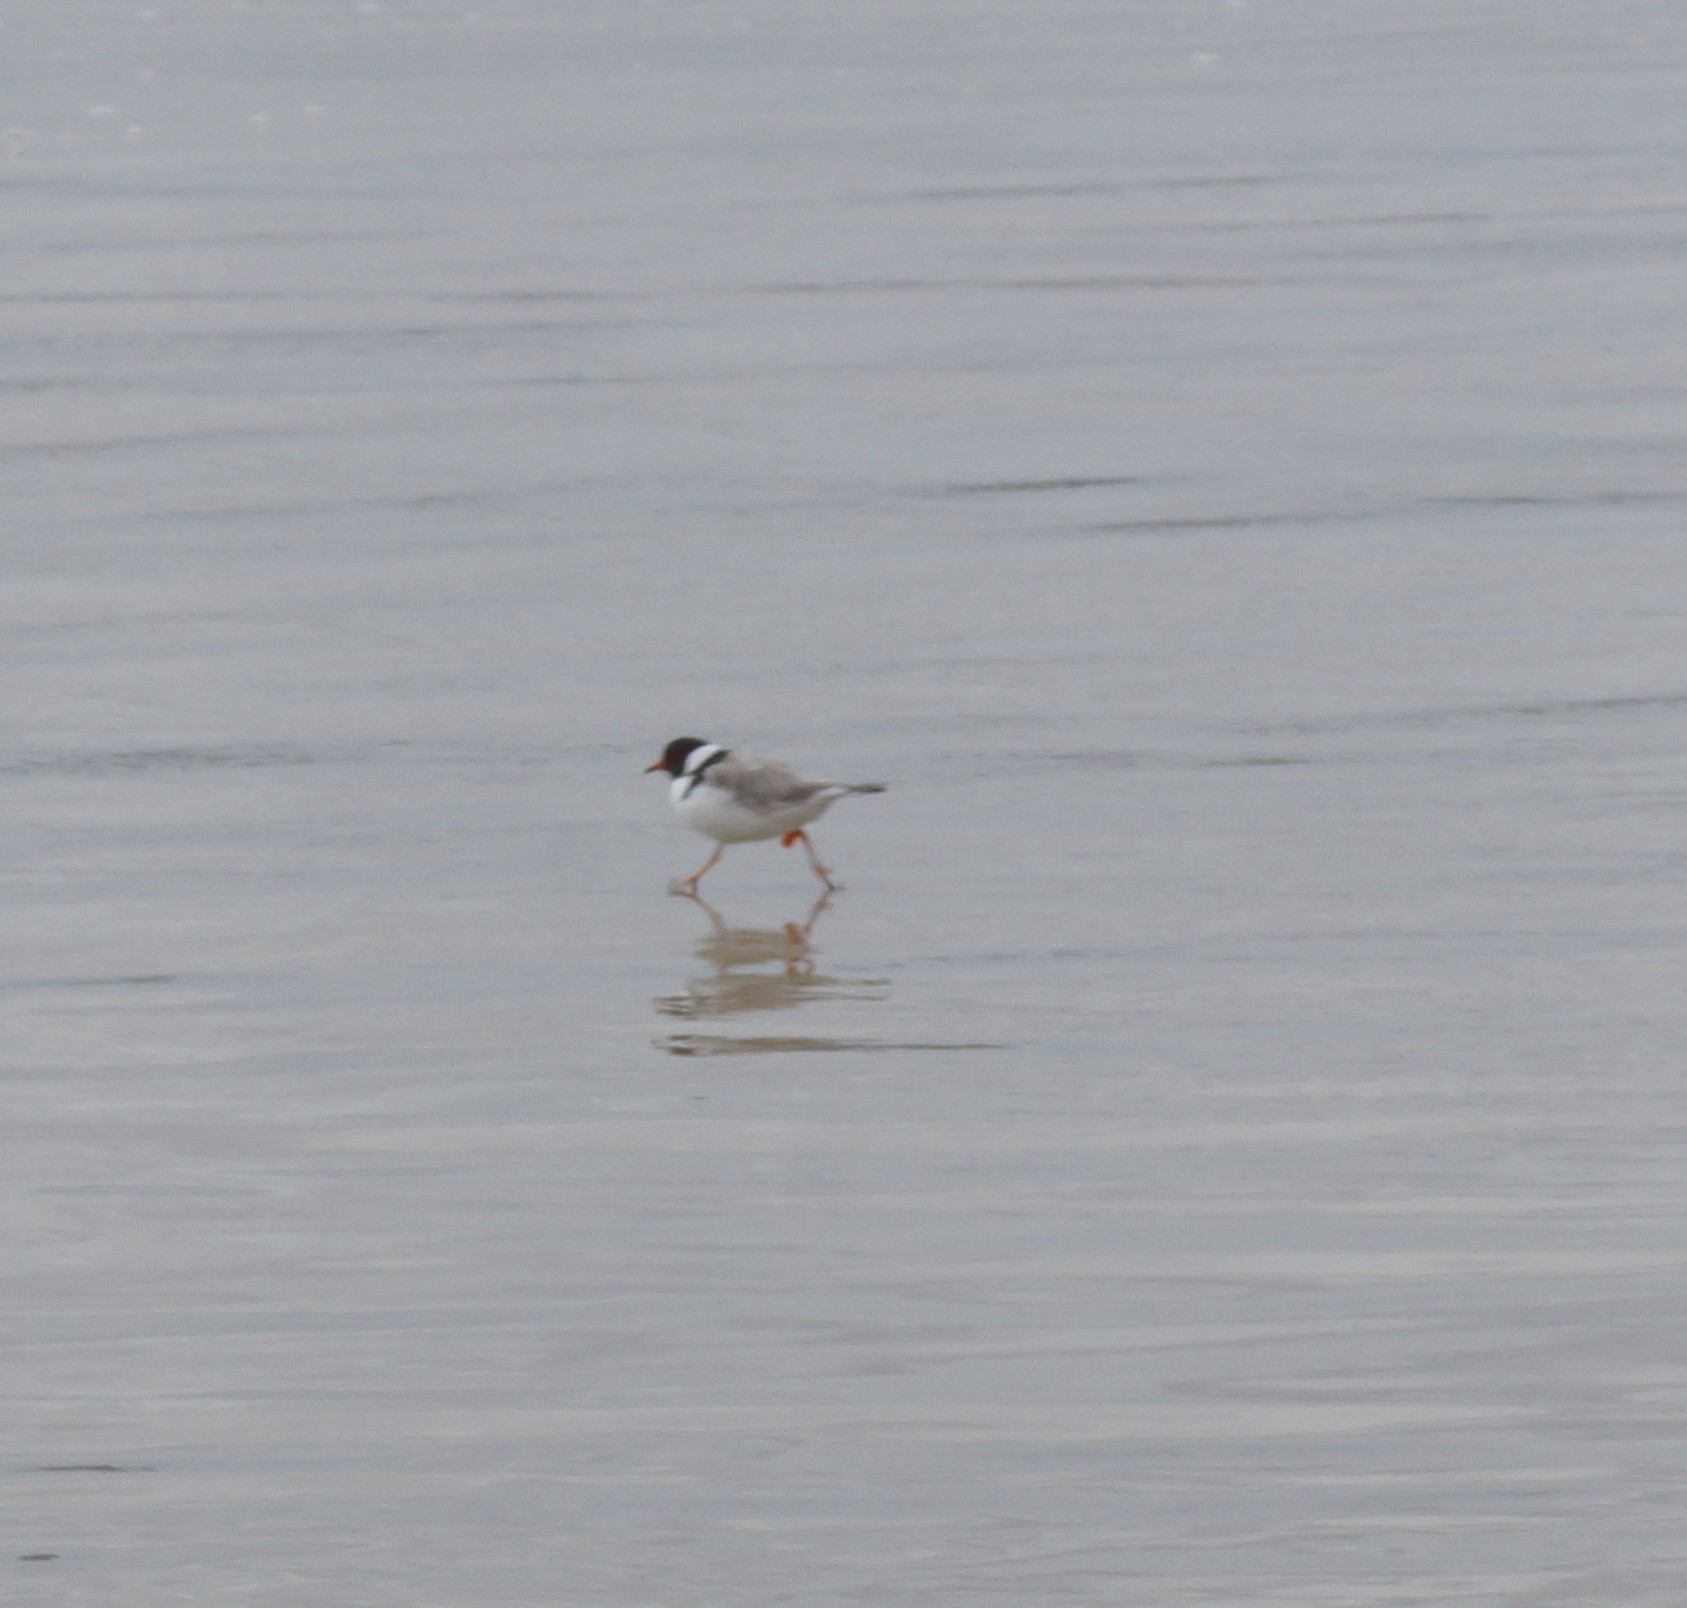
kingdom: Animalia
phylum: Chordata
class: Aves
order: Charadriiformes
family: Charadriidae
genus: Thinornis
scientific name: Thinornis cucullatus
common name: Hooded dotterel
